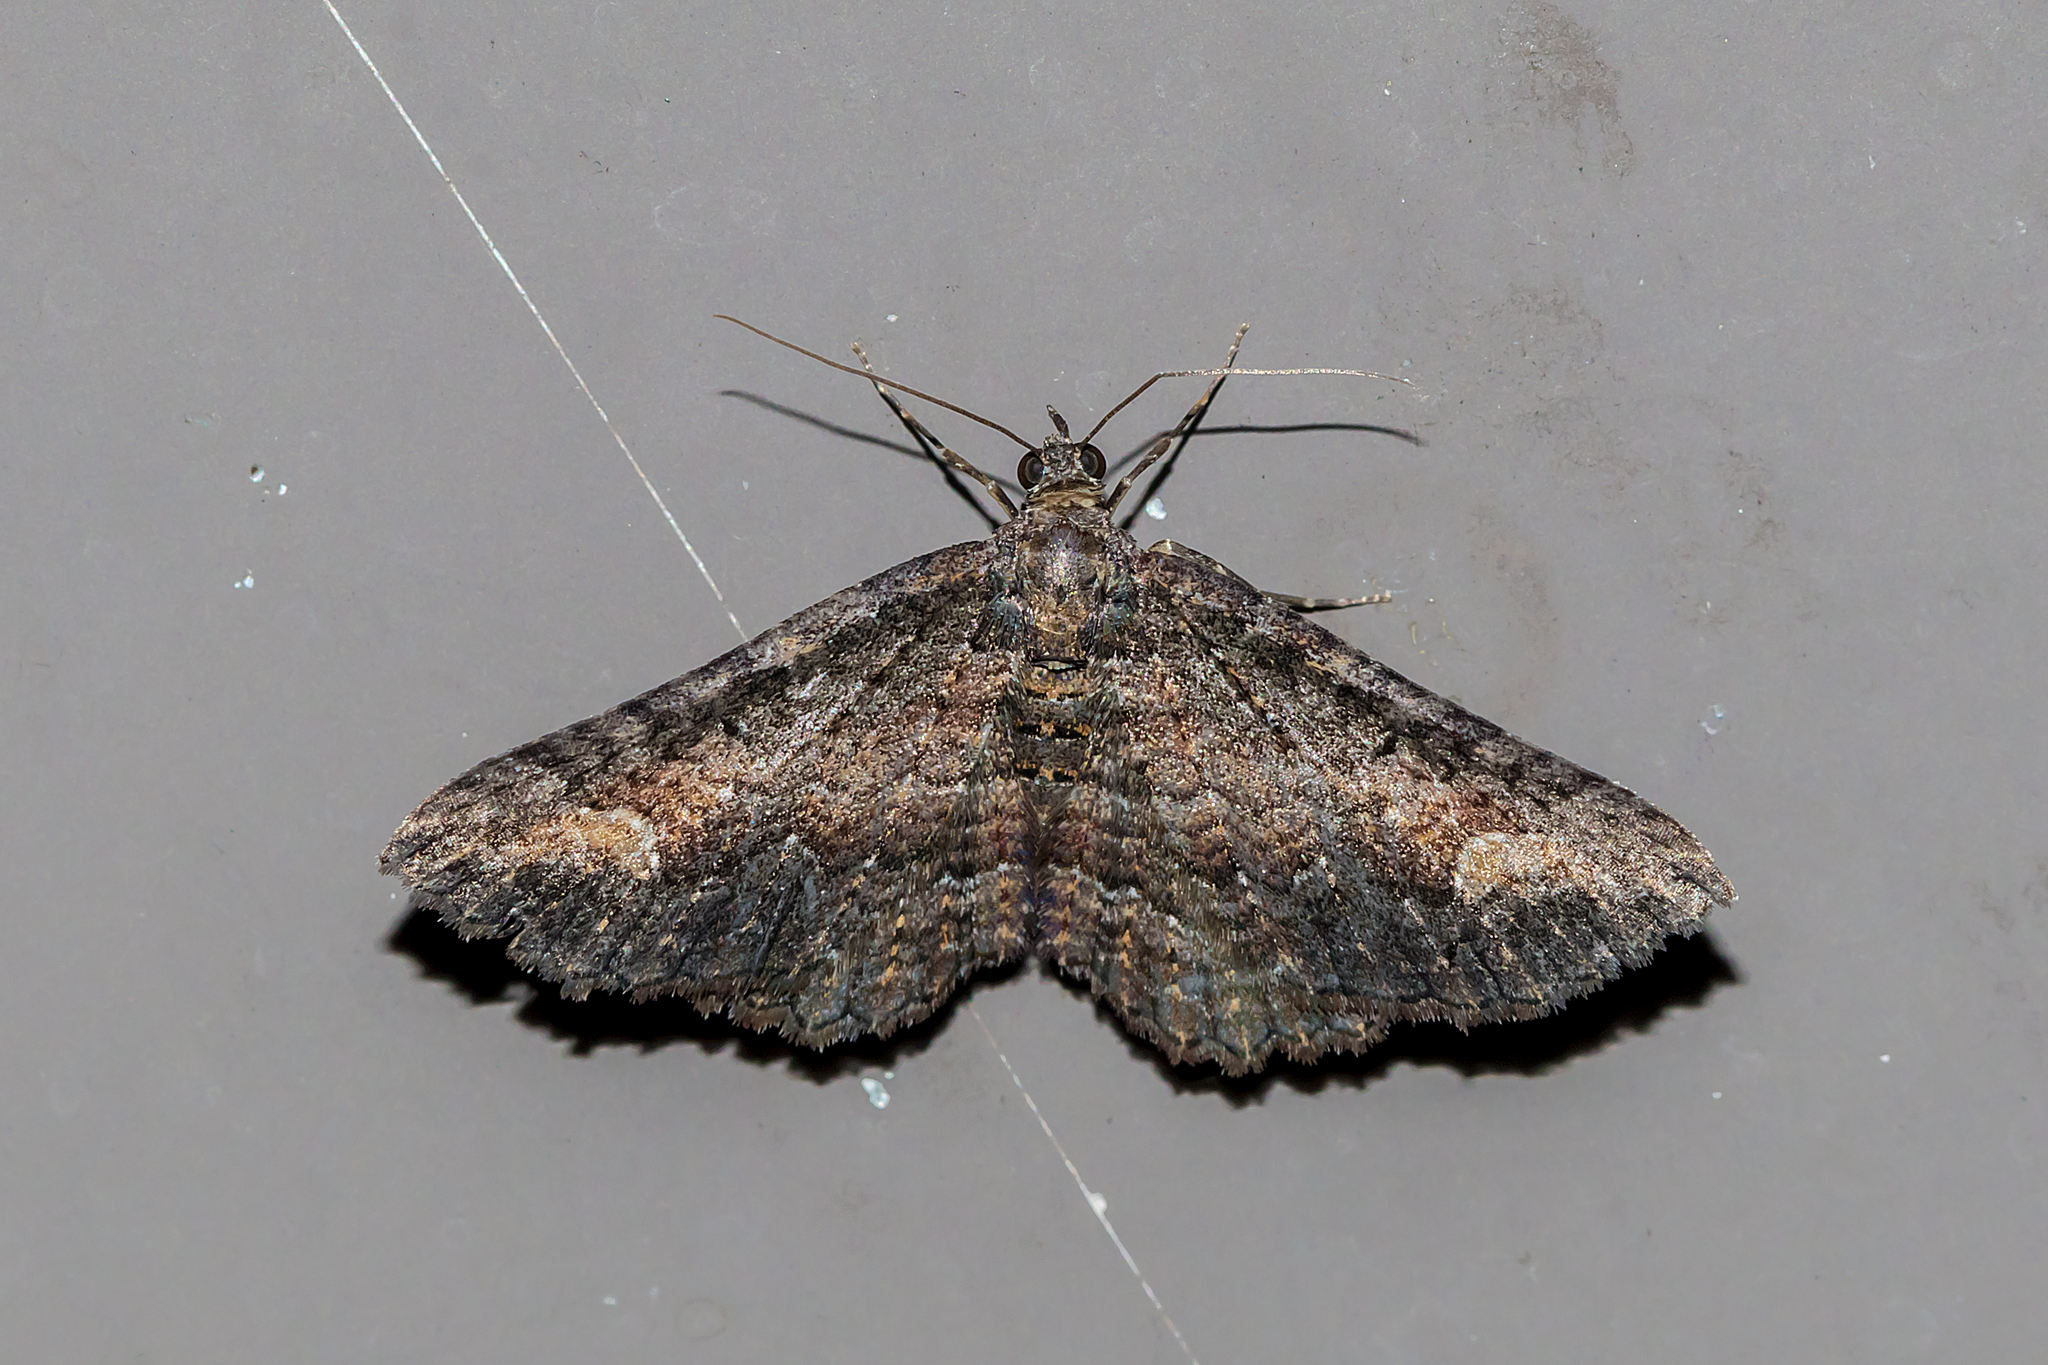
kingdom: Animalia
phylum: Arthropoda
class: Insecta
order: Lepidoptera
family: Geometridae
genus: Eupithecia
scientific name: Eupithecia Eucymatoge scotodes
